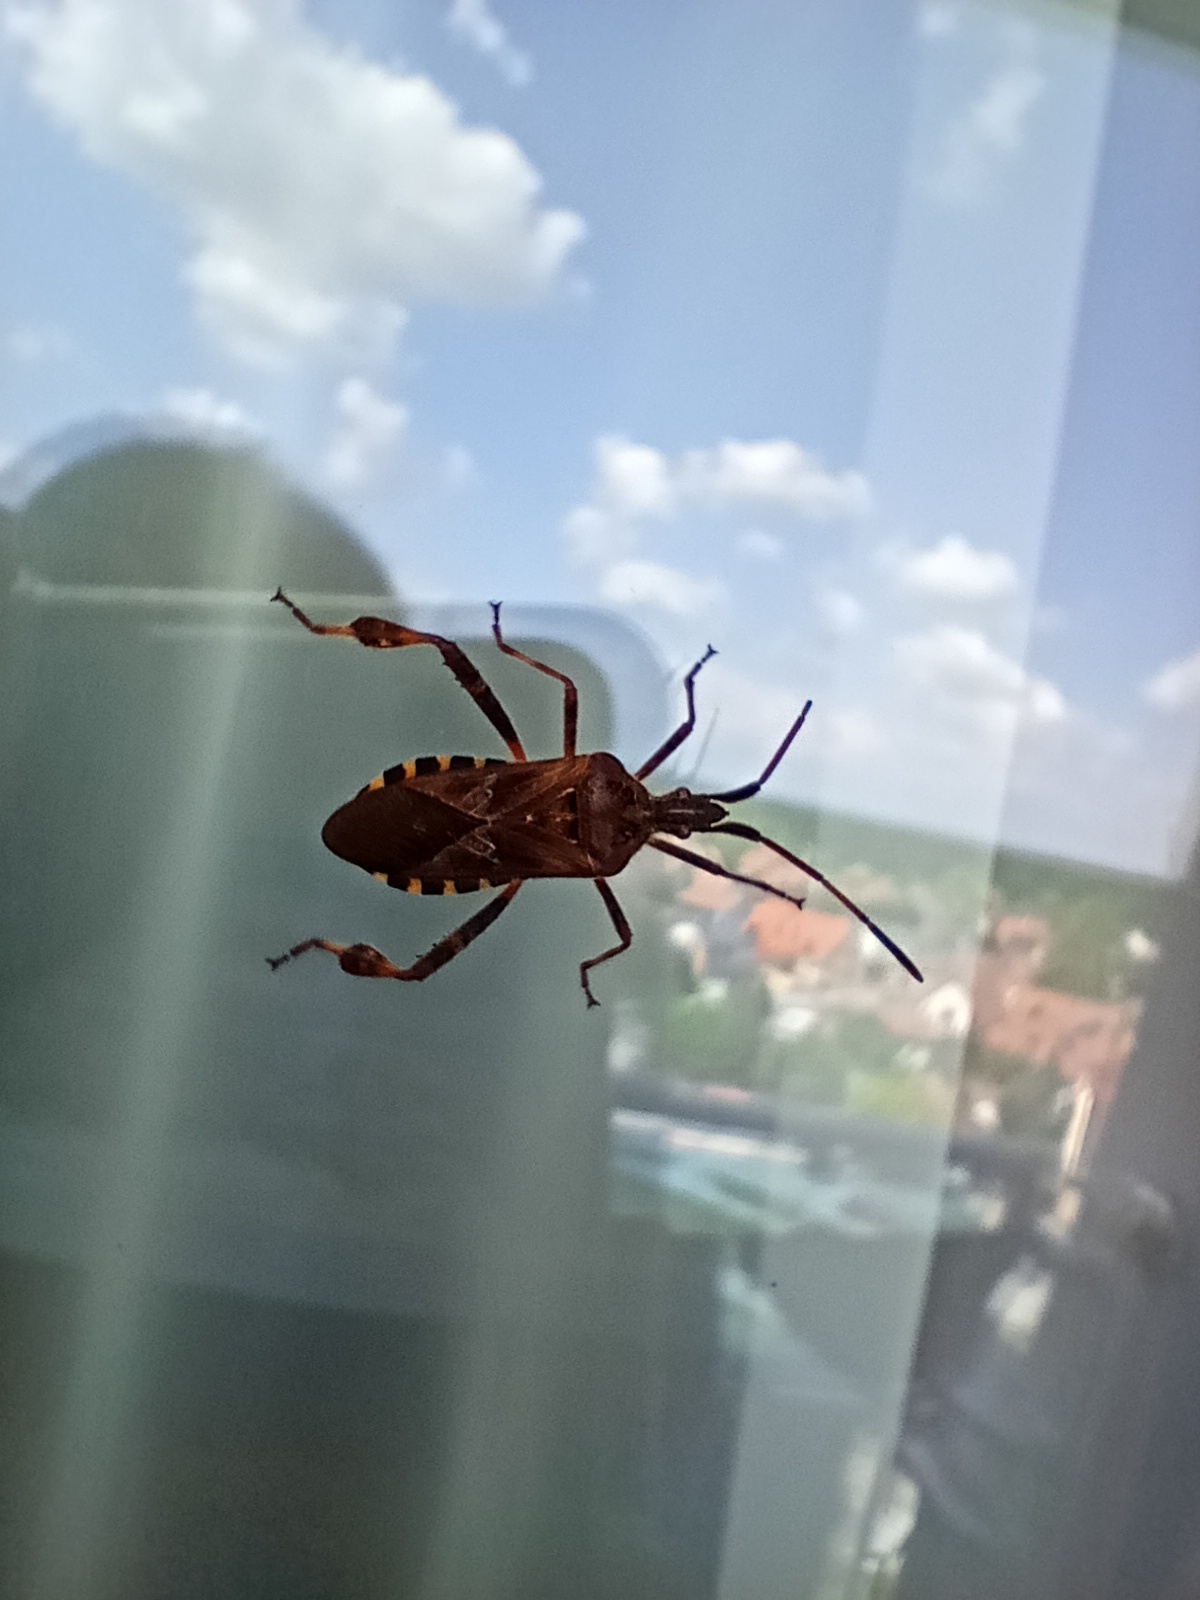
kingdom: Animalia
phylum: Arthropoda
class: Insecta
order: Hemiptera
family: Coreidae
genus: Leptoglossus
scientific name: Leptoglossus occidentalis
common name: Western conifer-seed bug
